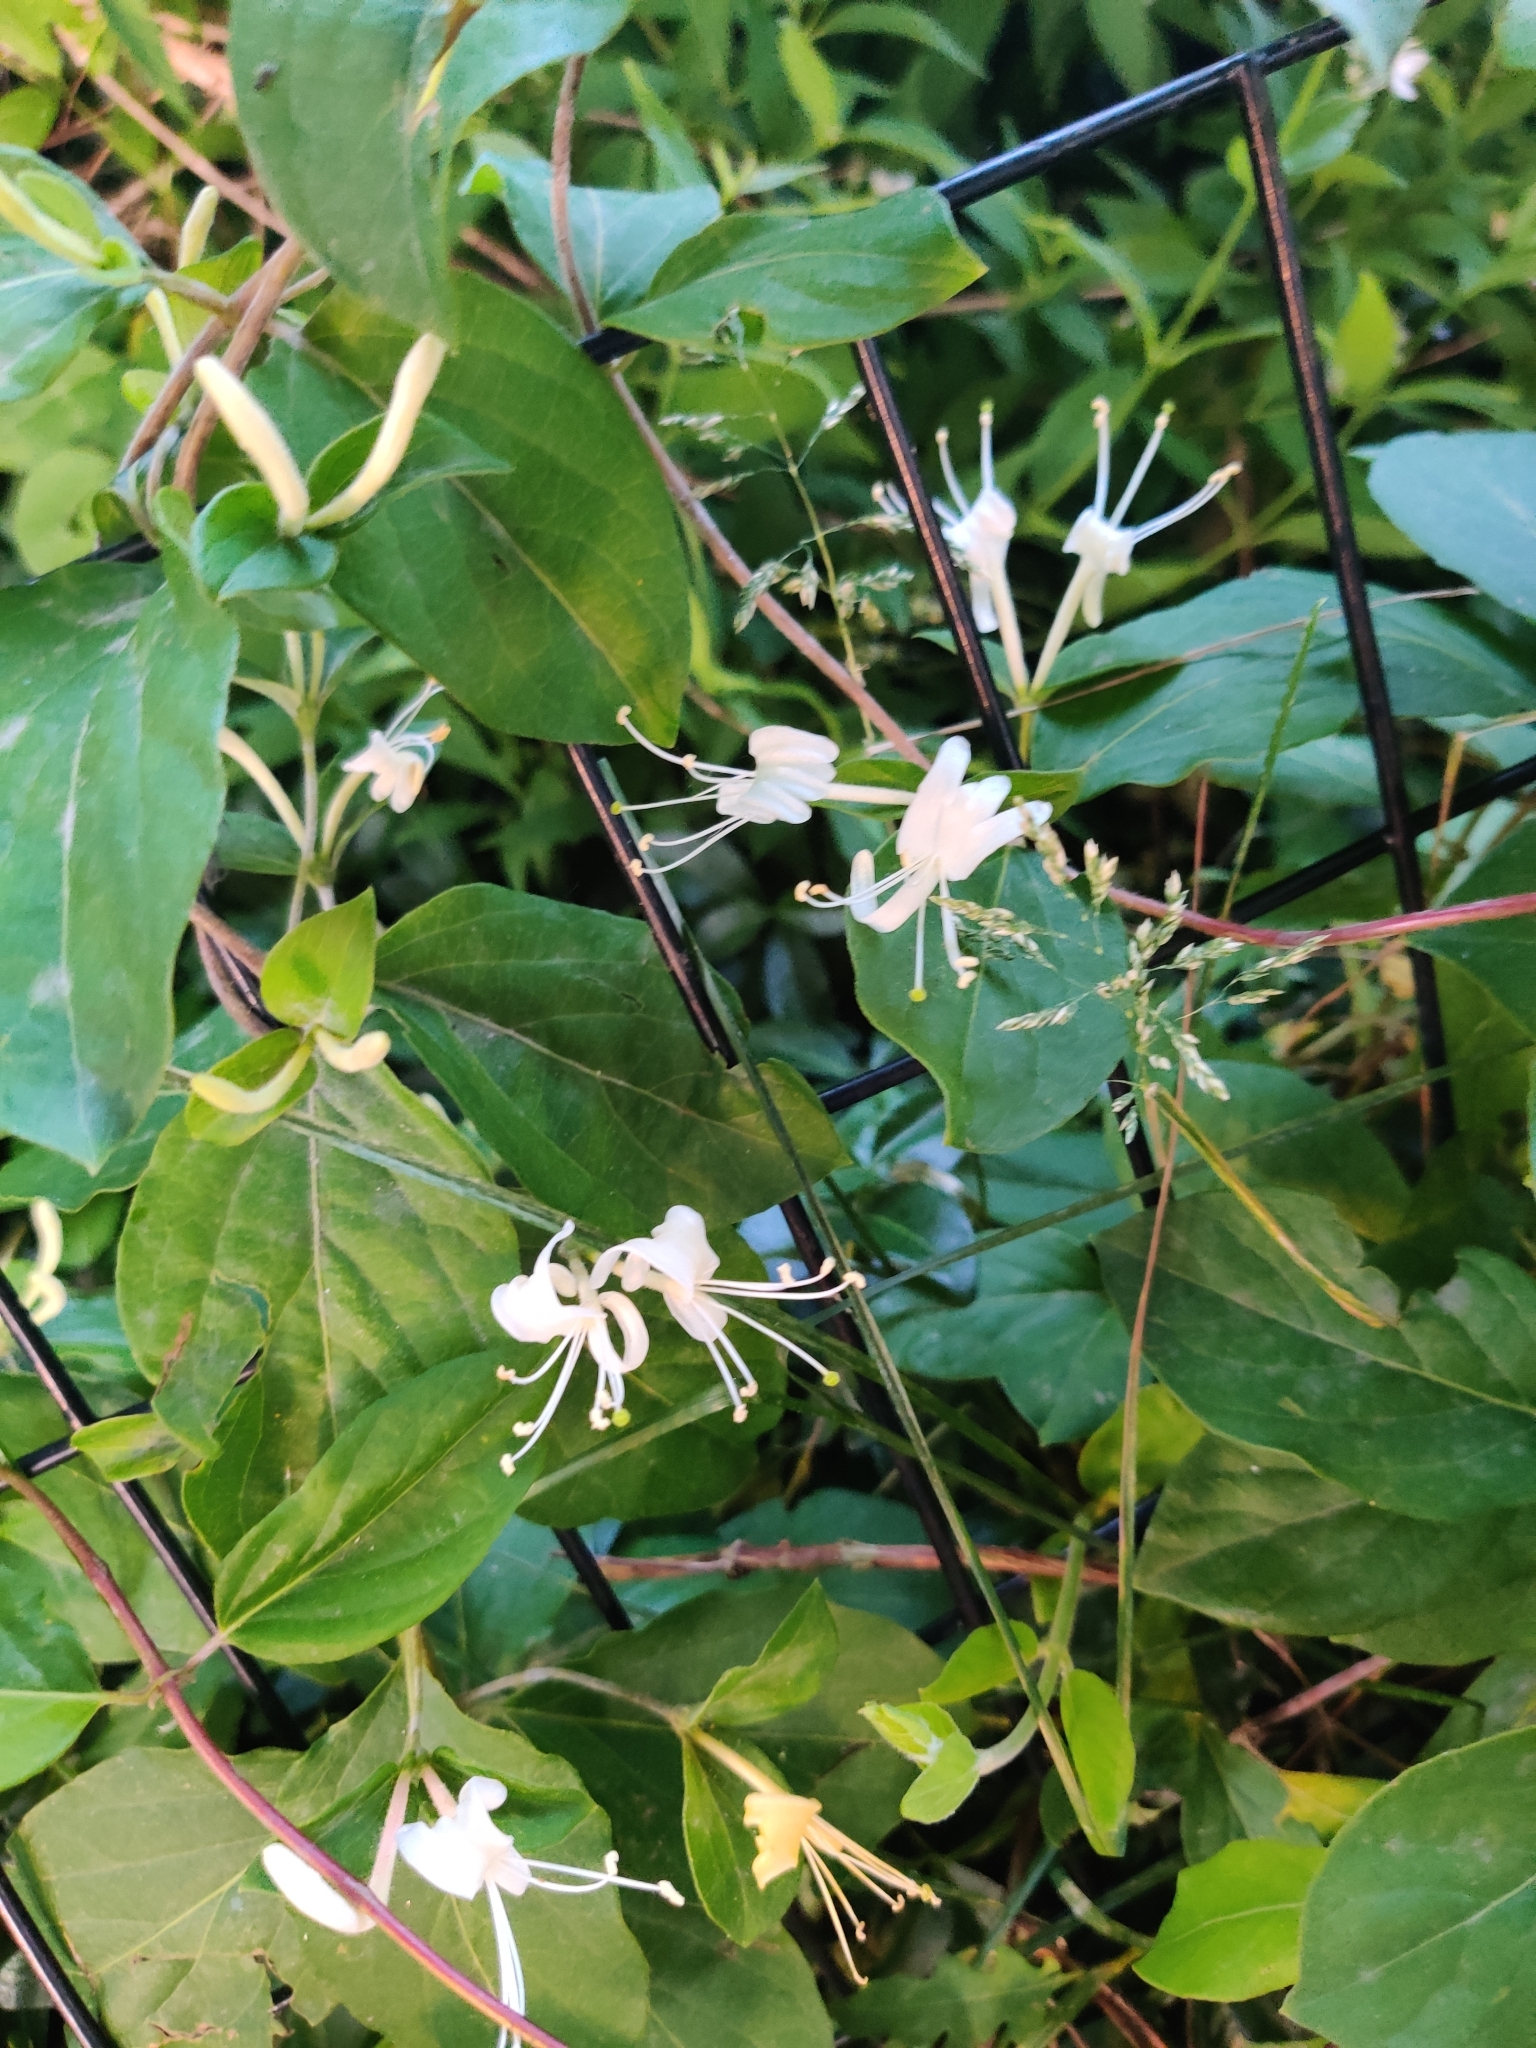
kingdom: Plantae
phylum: Tracheophyta
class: Magnoliopsida
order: Dipsacales
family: Caprifoliaceae
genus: Lonicera
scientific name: Lonicera japonica
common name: Japanese honeysuckle
